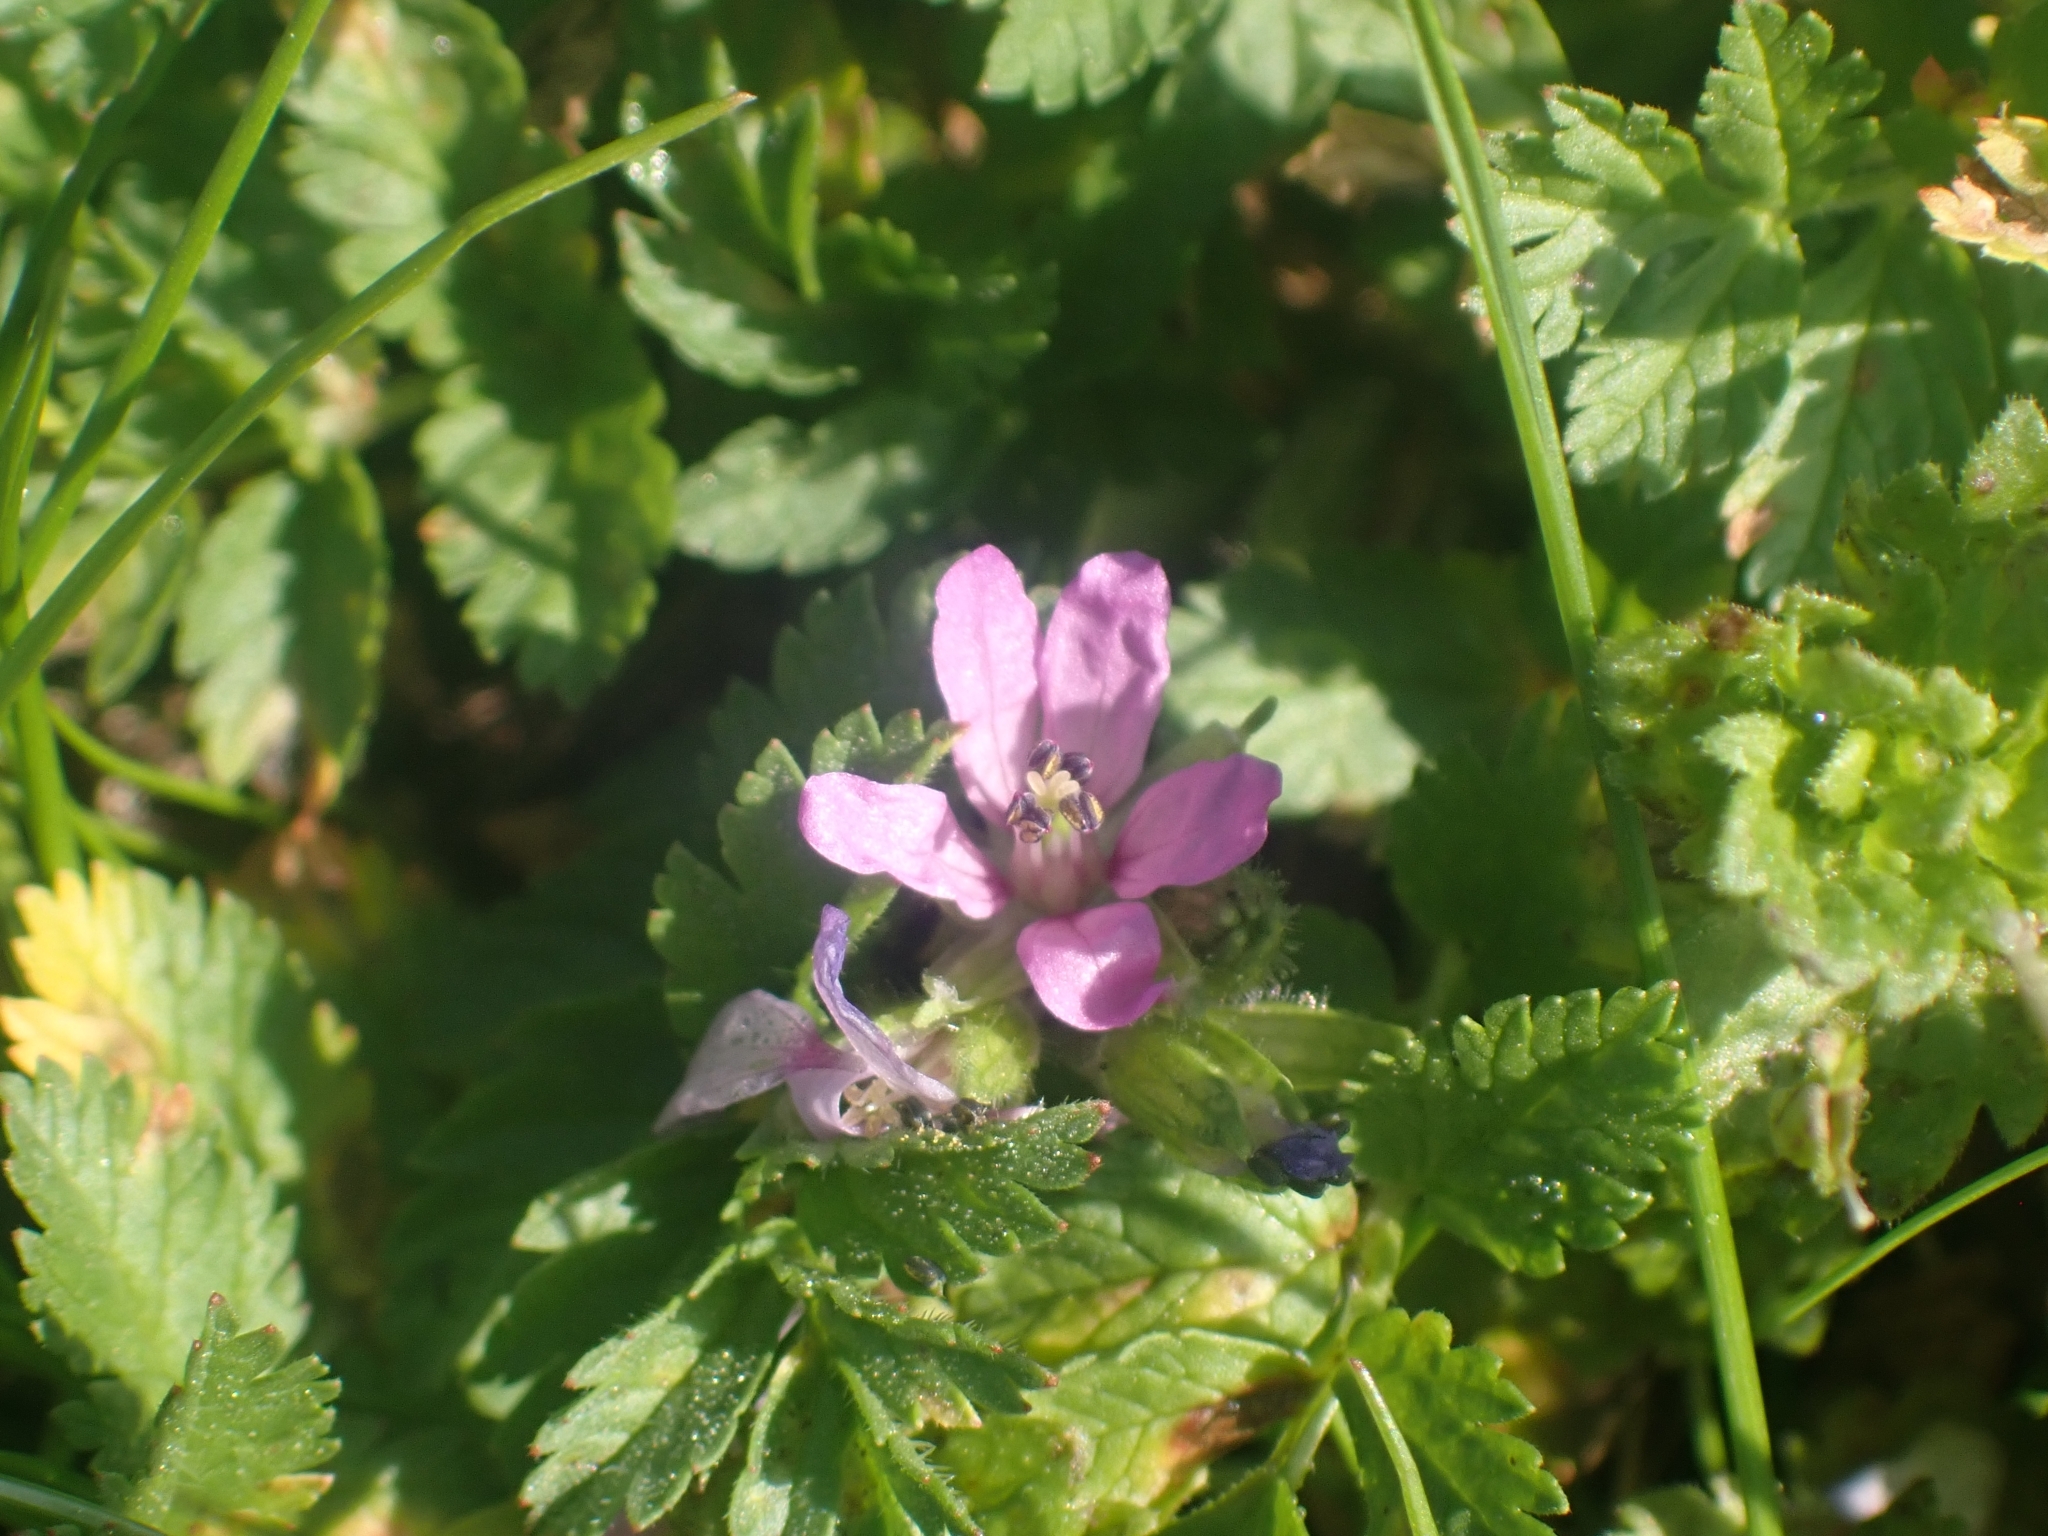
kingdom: Plantae
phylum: Tracheophyta
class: Magnoliopsida
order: Geraniales
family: Geraniaceae
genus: Erodium
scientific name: Erodium moschatum
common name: Musk stork's-bill
